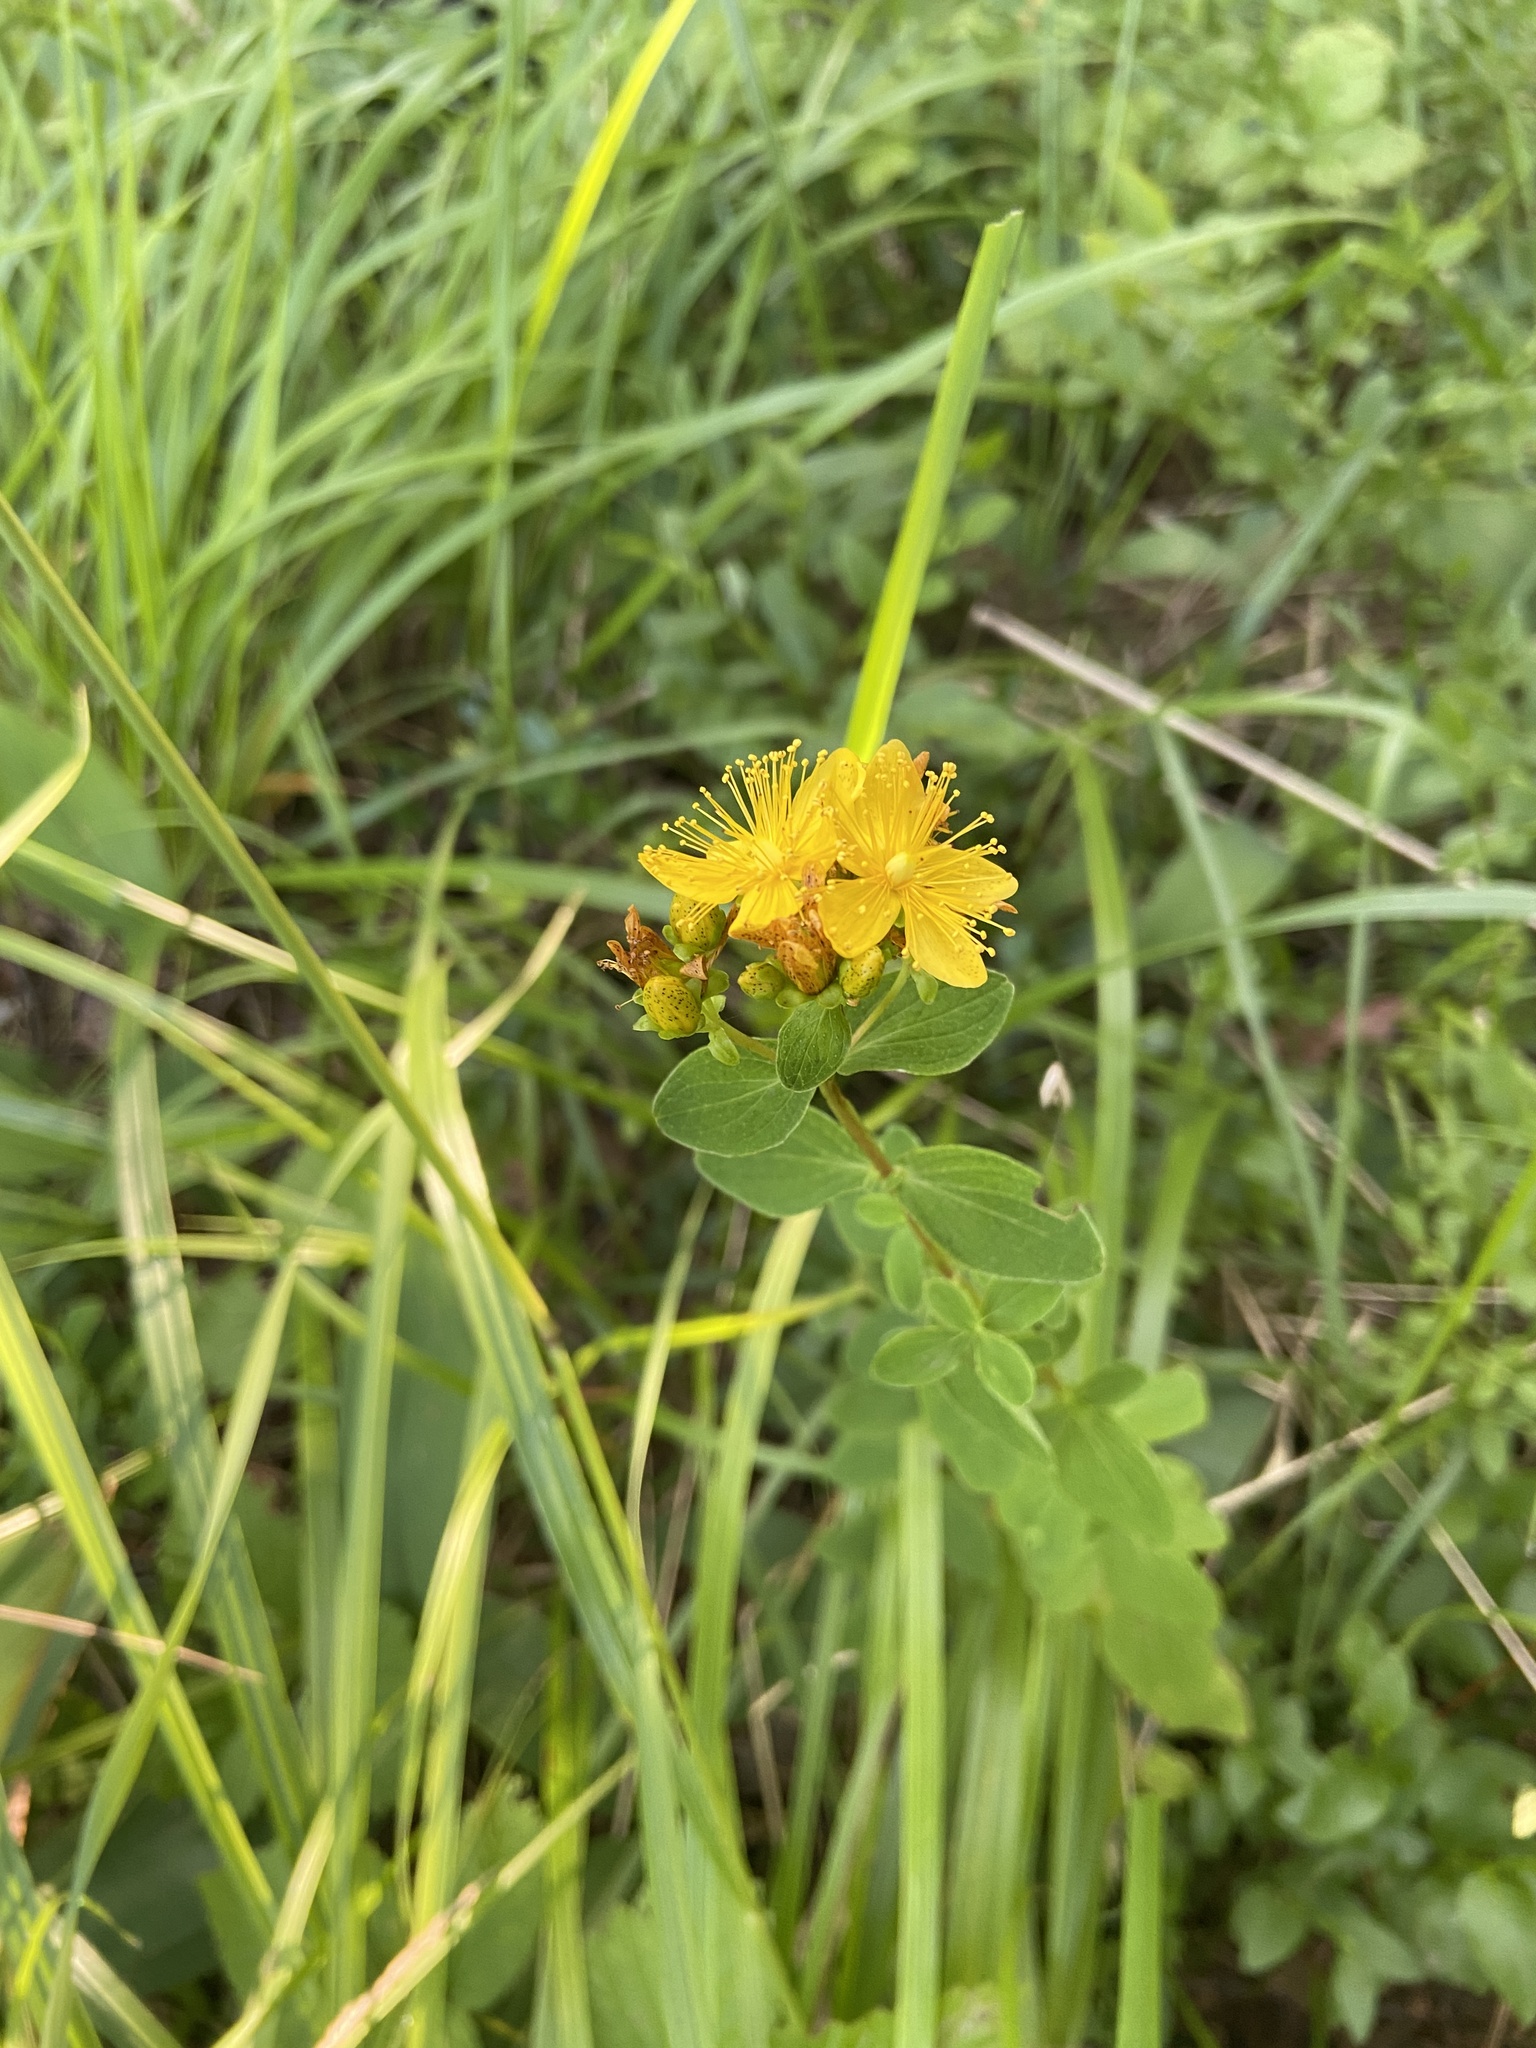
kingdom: Plantae
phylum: Tracheophyta
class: Magnoliopsida
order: Malpighiales
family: Hypericaceae
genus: Hypericum
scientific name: Hypericum maculatum
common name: Imperforate st. john's-wort
